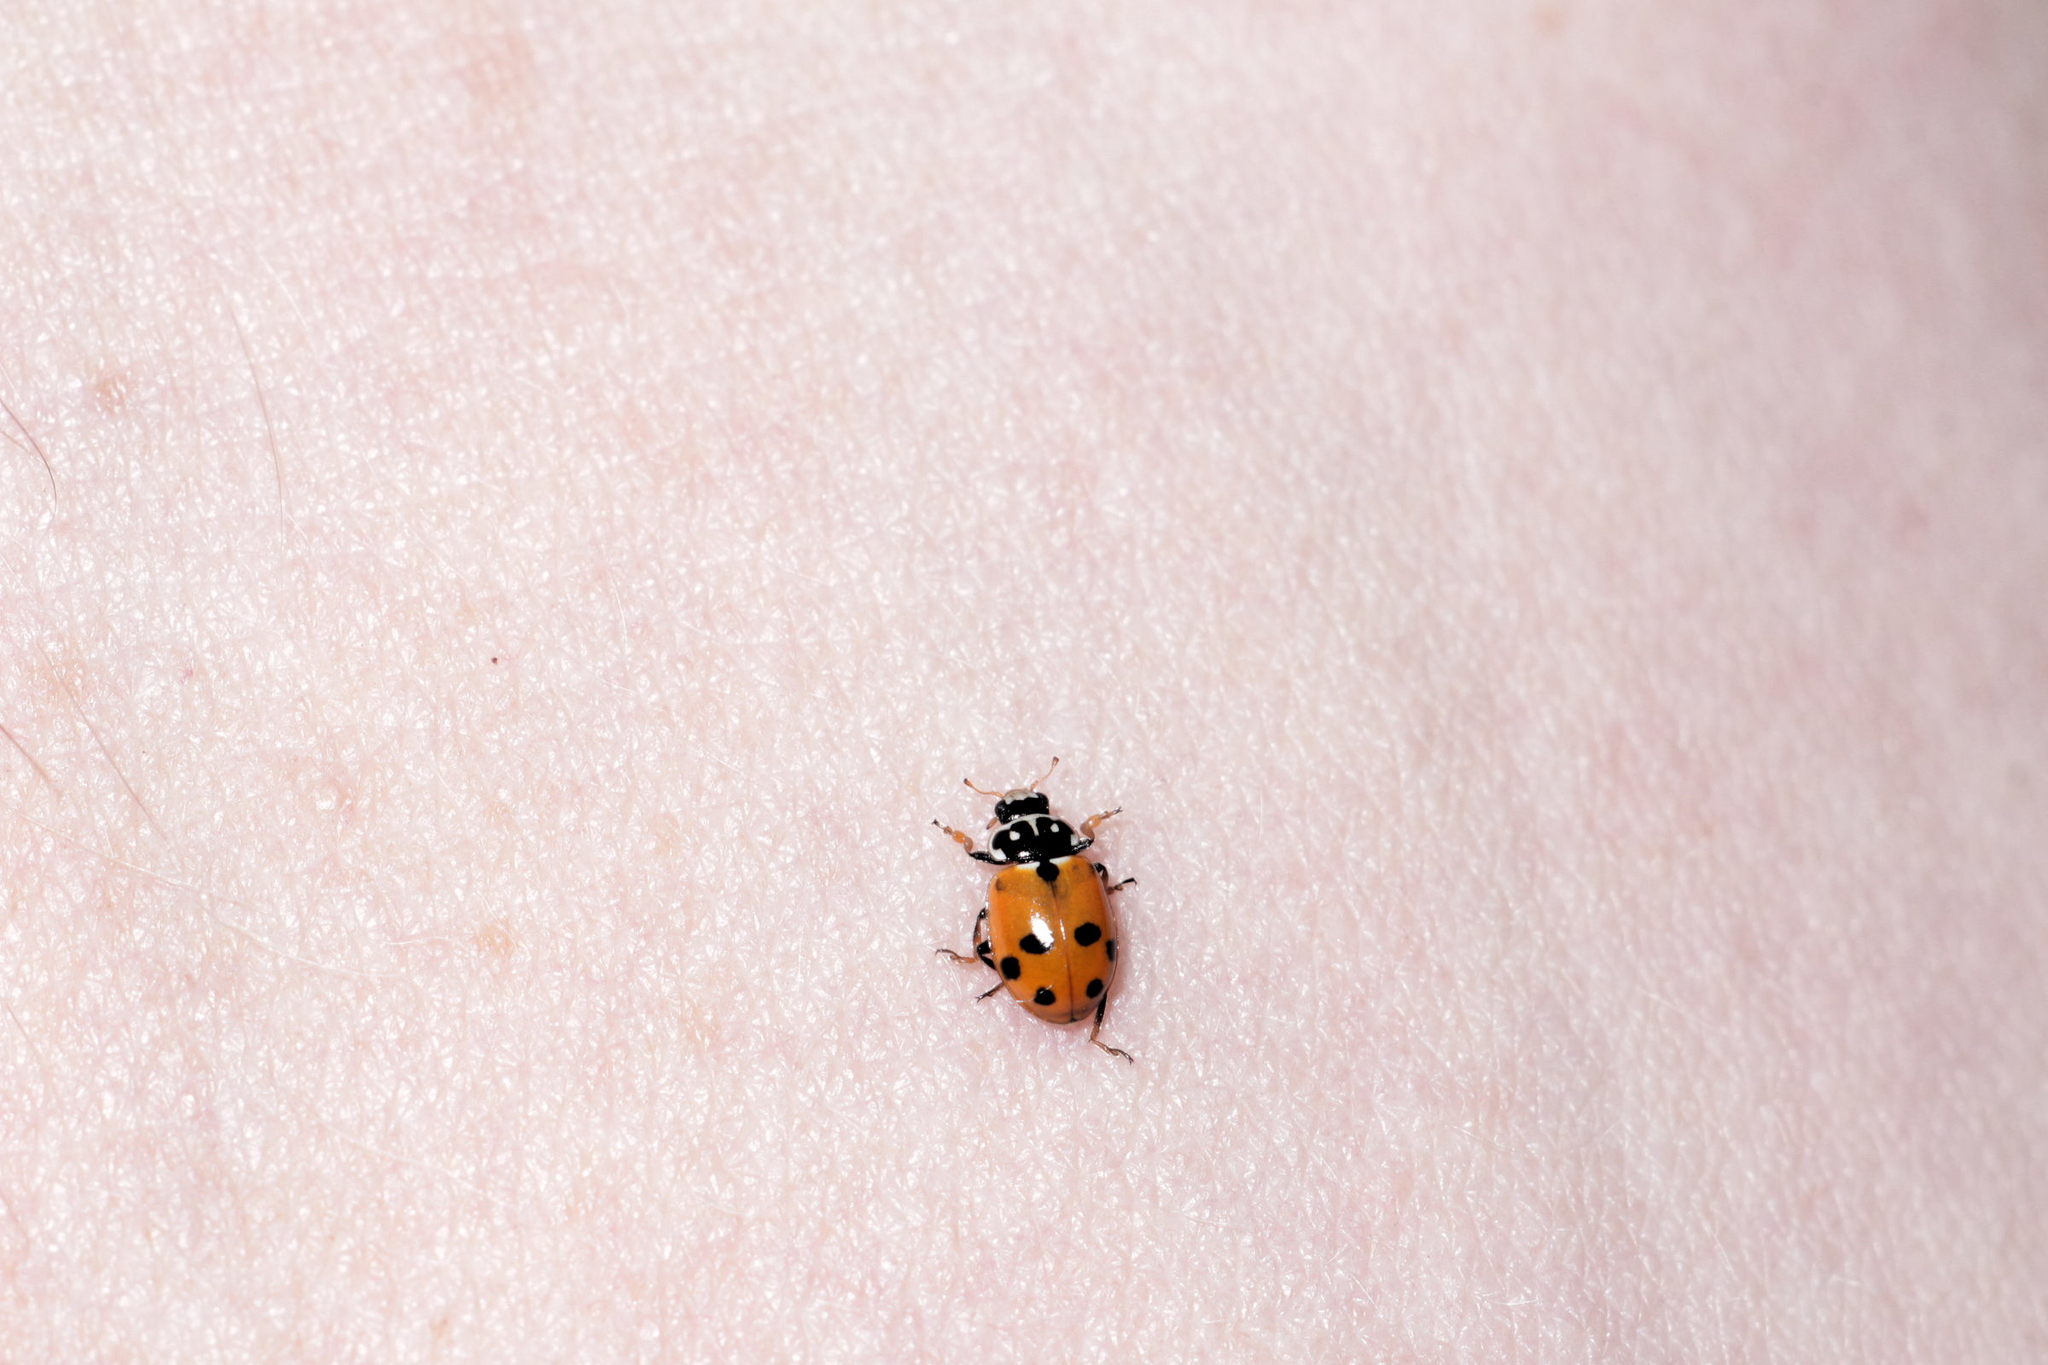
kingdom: Animalia
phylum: Arthropoda
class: Insecta
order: Coleoptera
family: Coccinellidae
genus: Hippodamia
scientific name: Hippodamia variegata
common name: Ladybird beetle
